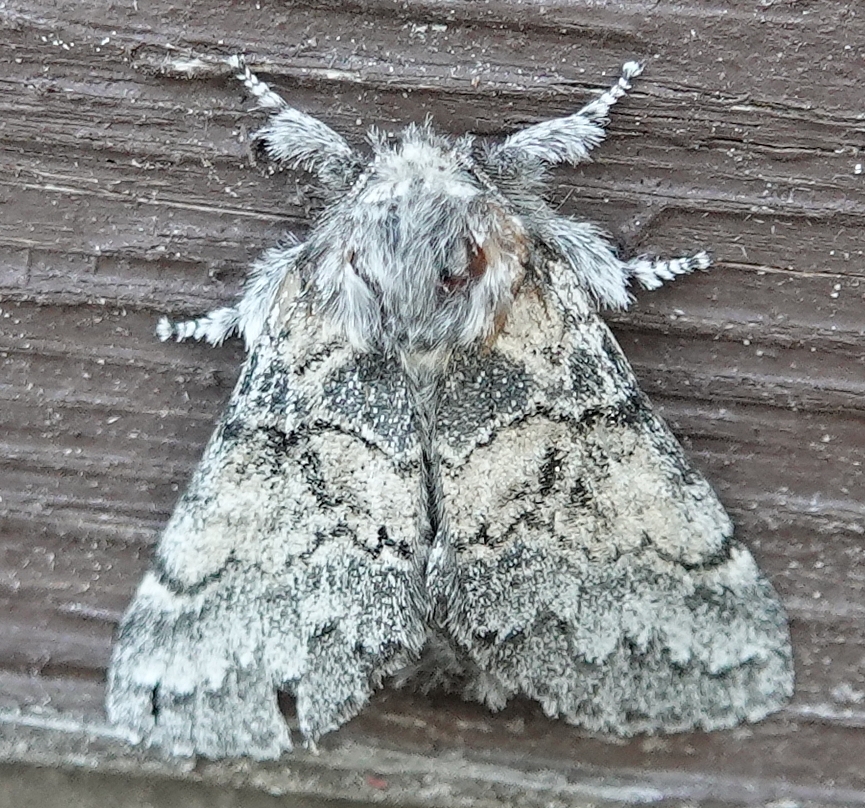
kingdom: Animalia
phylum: Arthropoda
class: Insecta
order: Lepidoptera
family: Notodontidae
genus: Gluphisia
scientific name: Gluphisia septentrionis
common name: Common gluphisia
